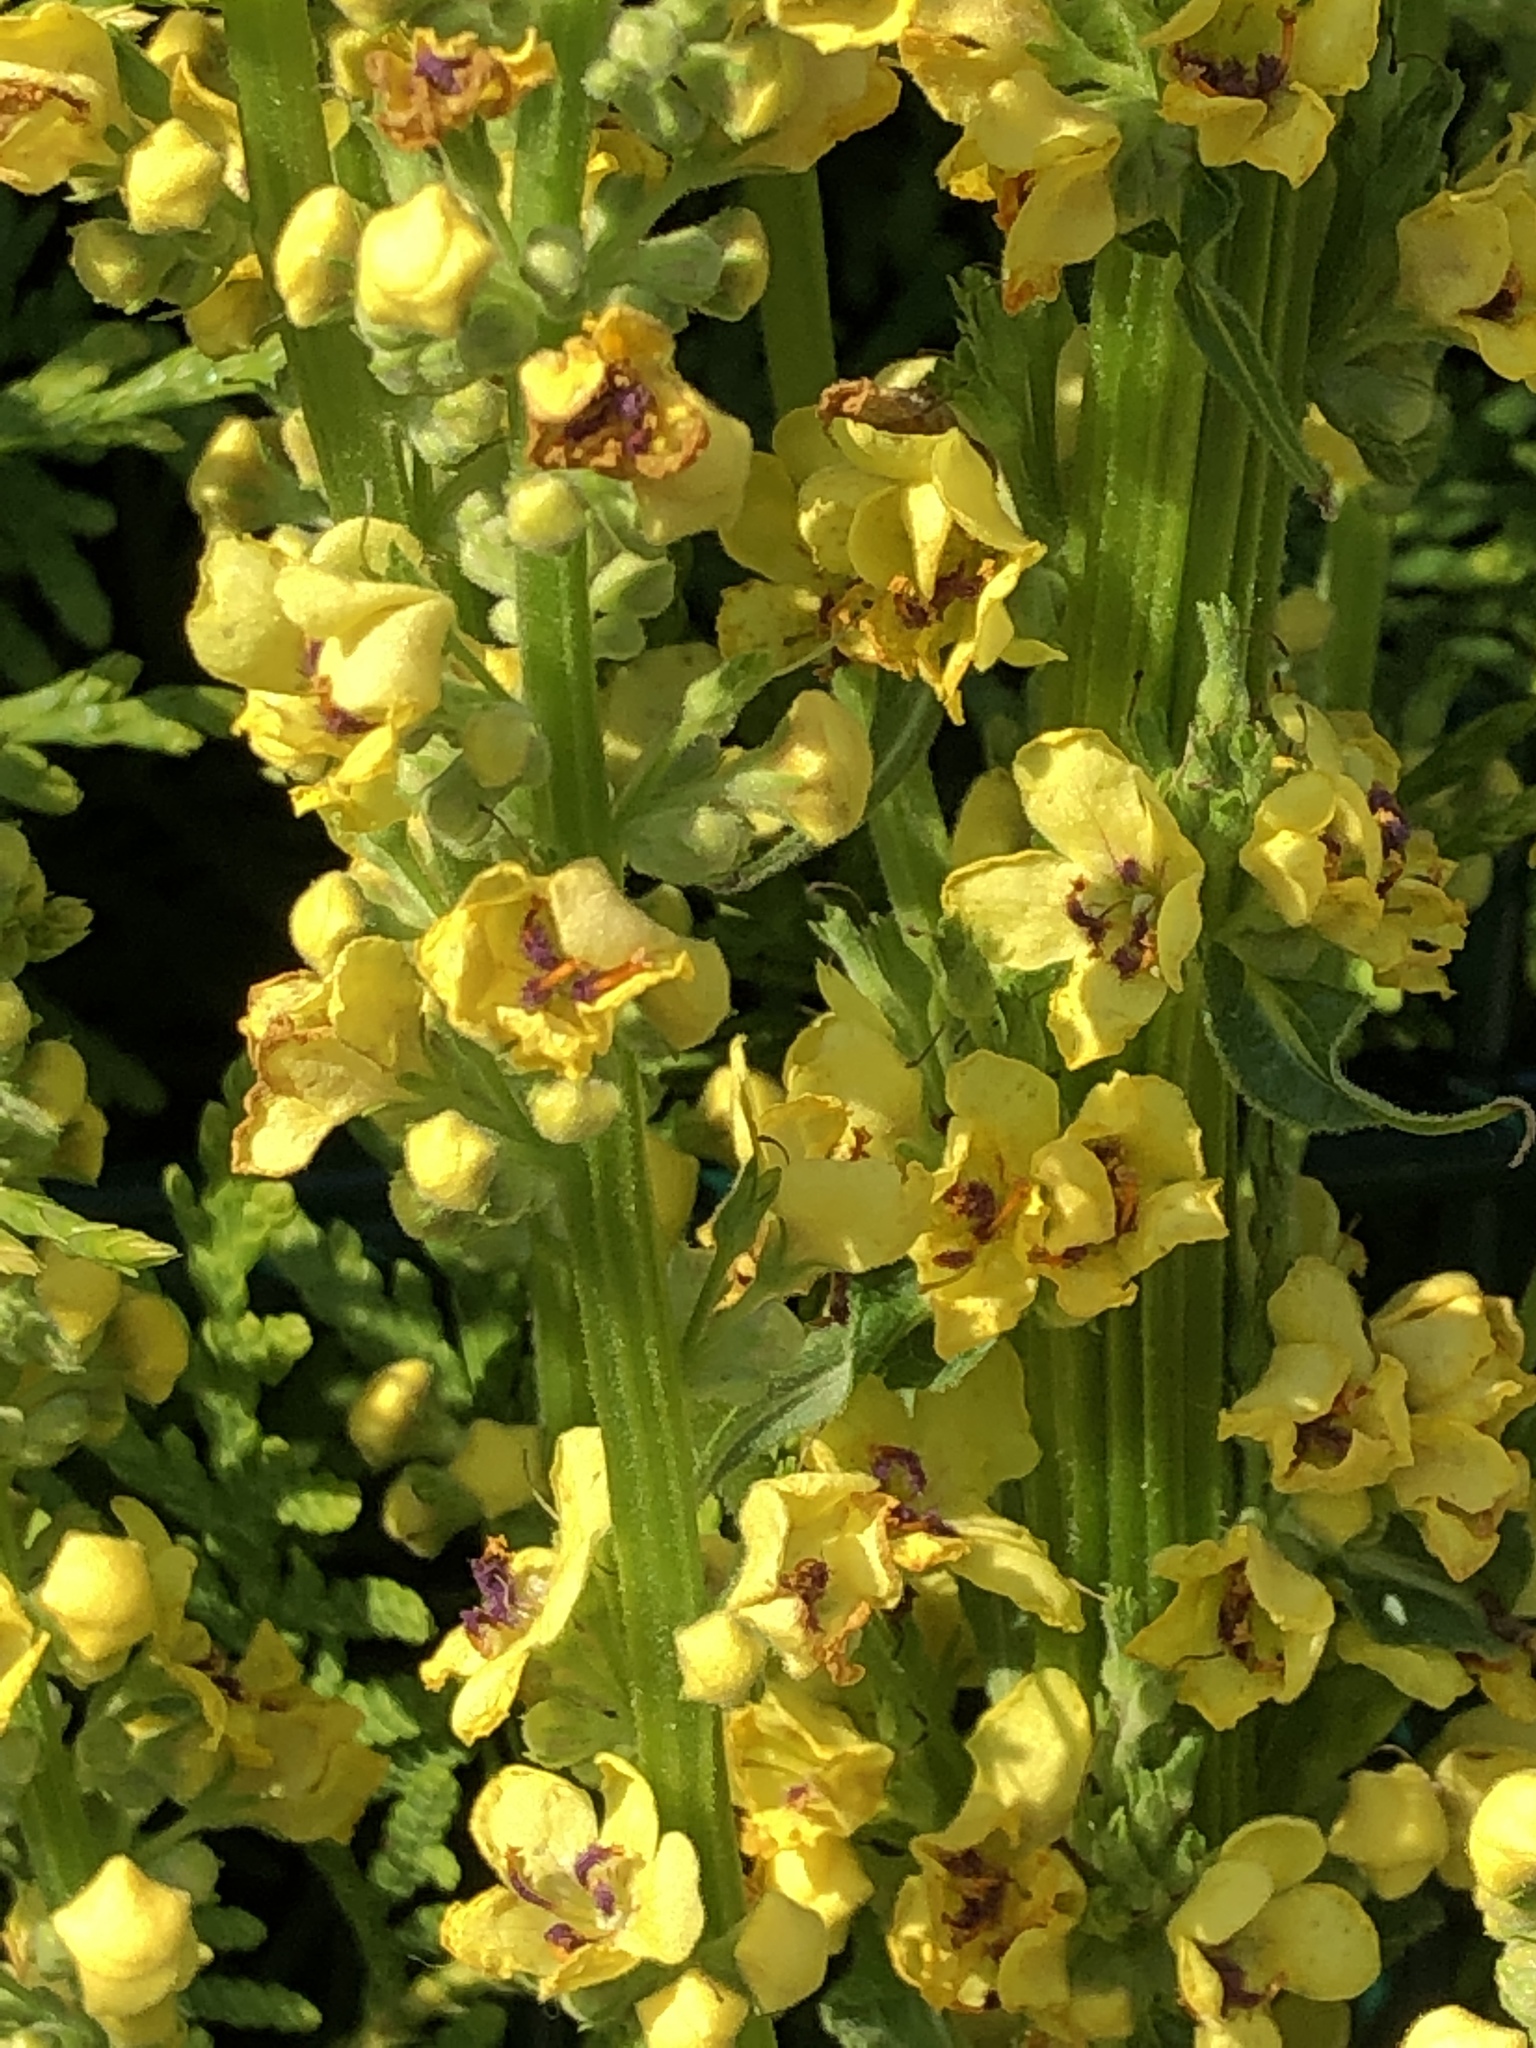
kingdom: Plantae
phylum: Tracheophyta
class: Magnoliopsida
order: Lamiales
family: Scrophulariaceae
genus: Verbascum
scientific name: Verbascum nigrum
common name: Dark mullein
